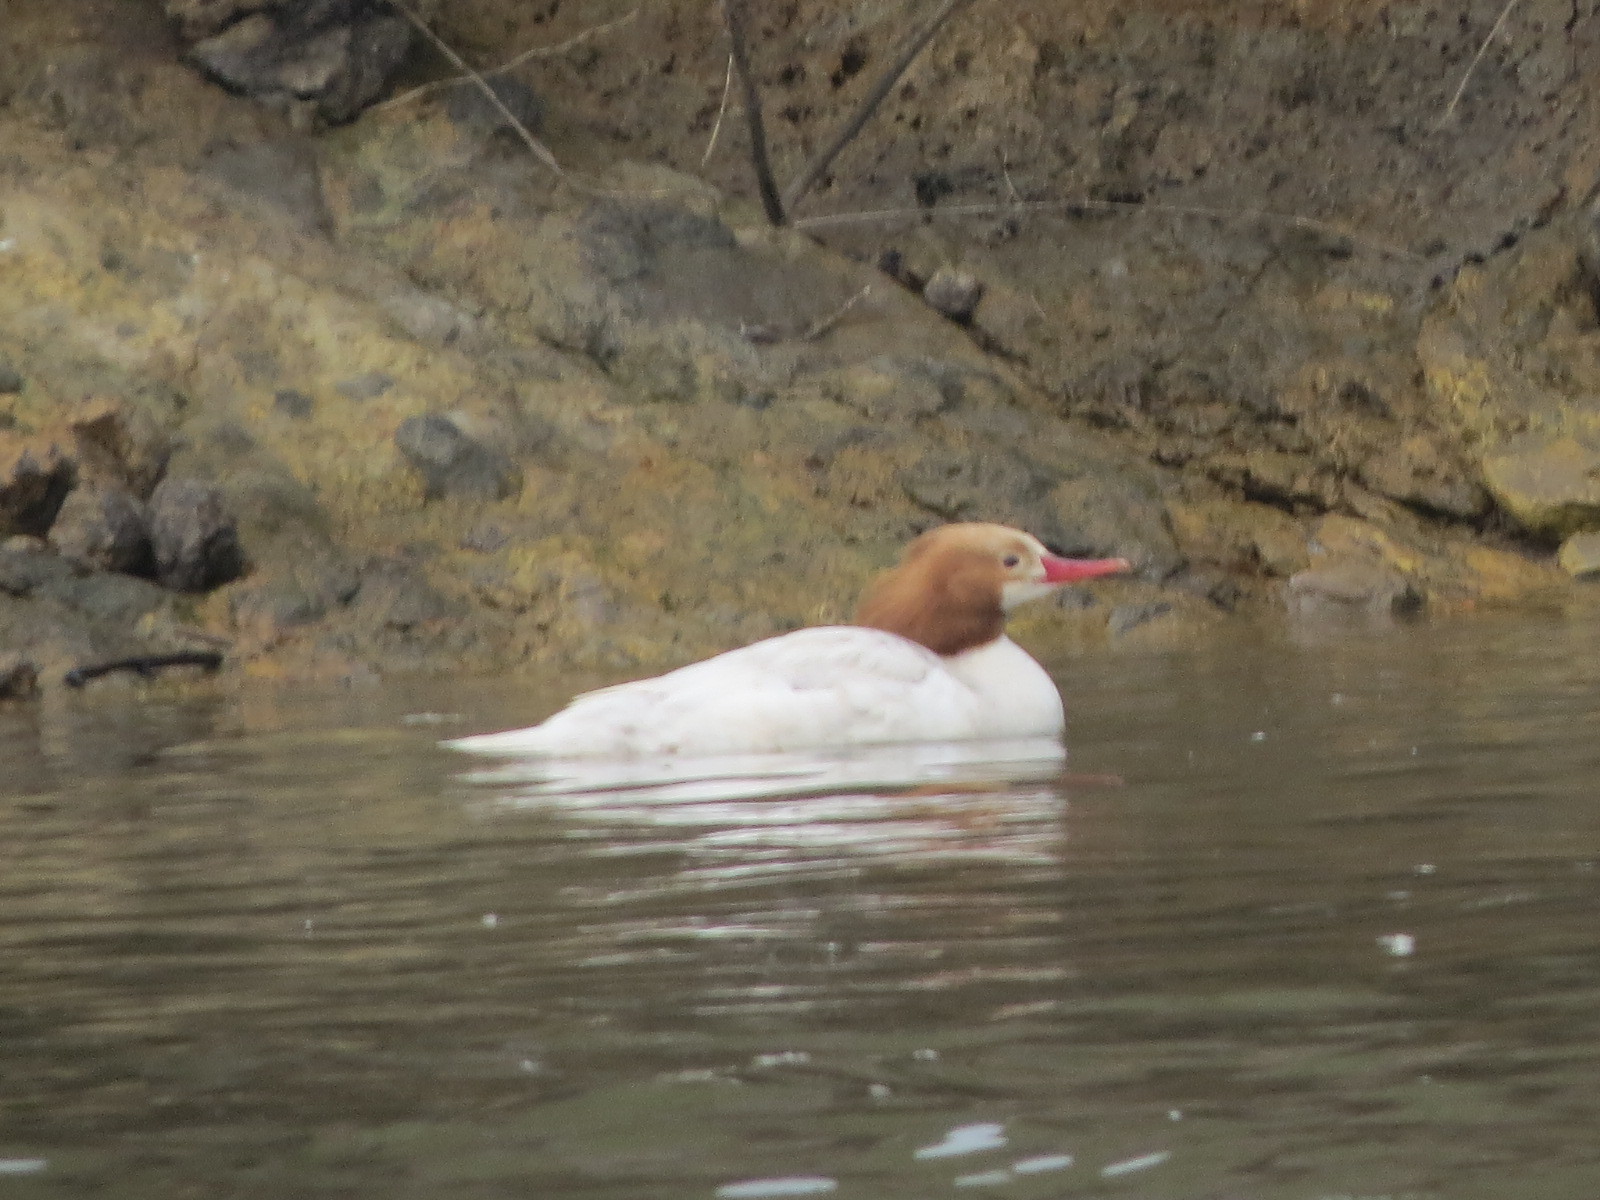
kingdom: Animalia
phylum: Chordata
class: Aves
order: Anseriformes
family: Anatidae
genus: Mergus
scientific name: Mergus merganser
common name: Common merganser
